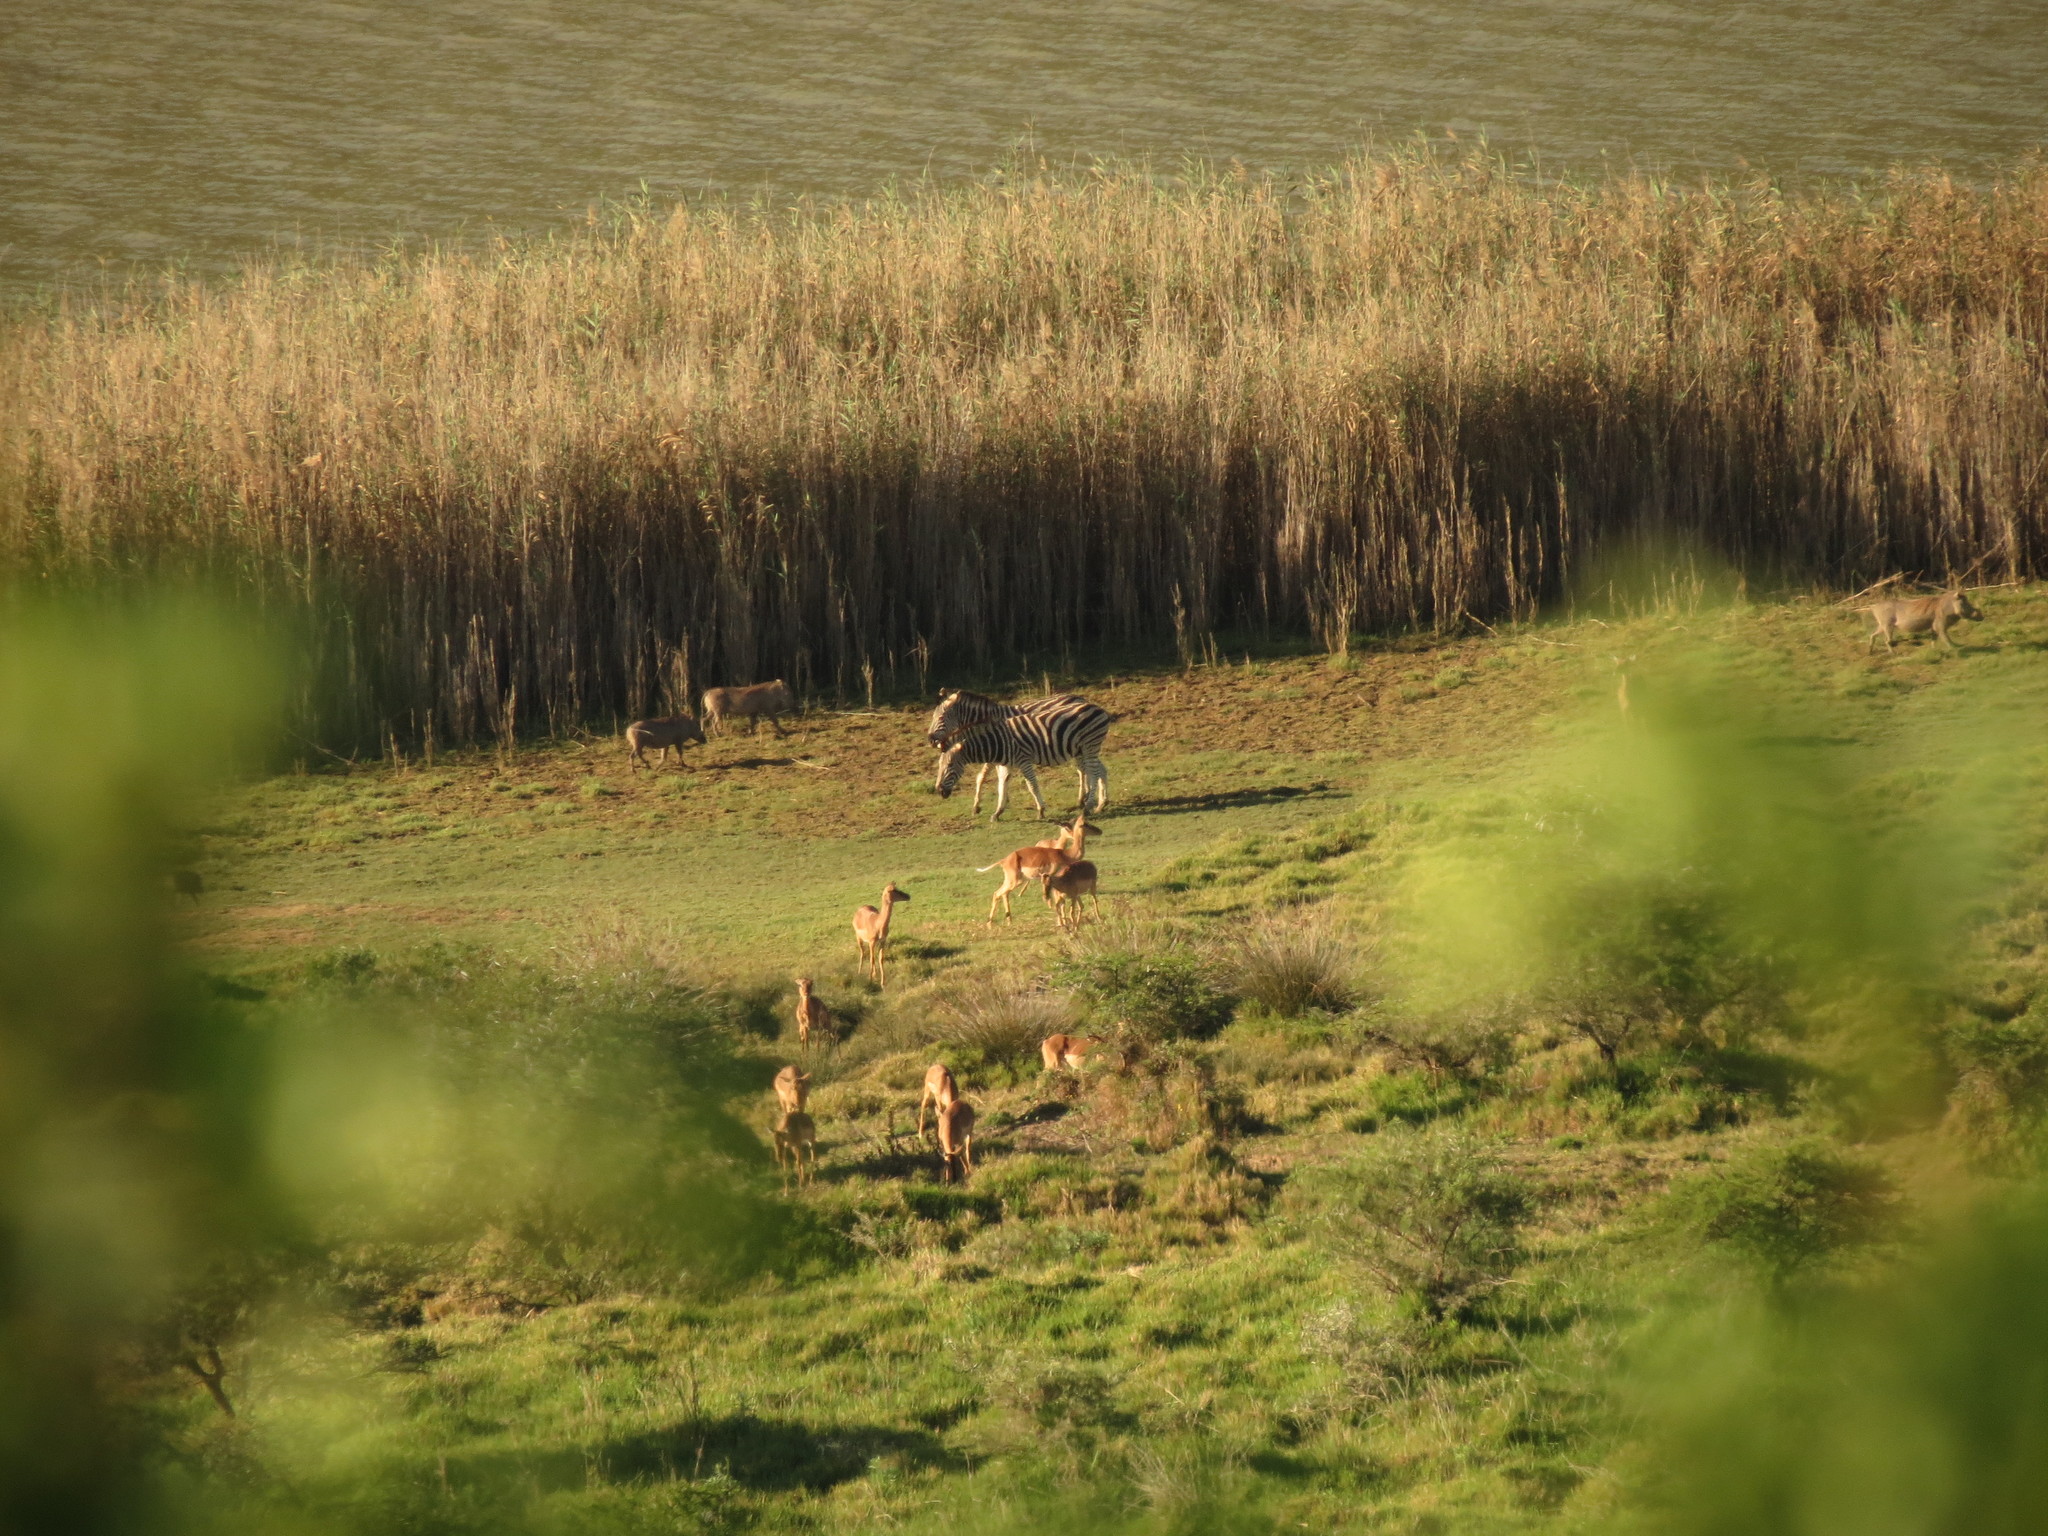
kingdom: Animalia
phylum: Chordata
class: Mammalia
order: Artiodactyla
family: Bovidae
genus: Aepyceros
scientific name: Aepyceros melampus
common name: Impala
